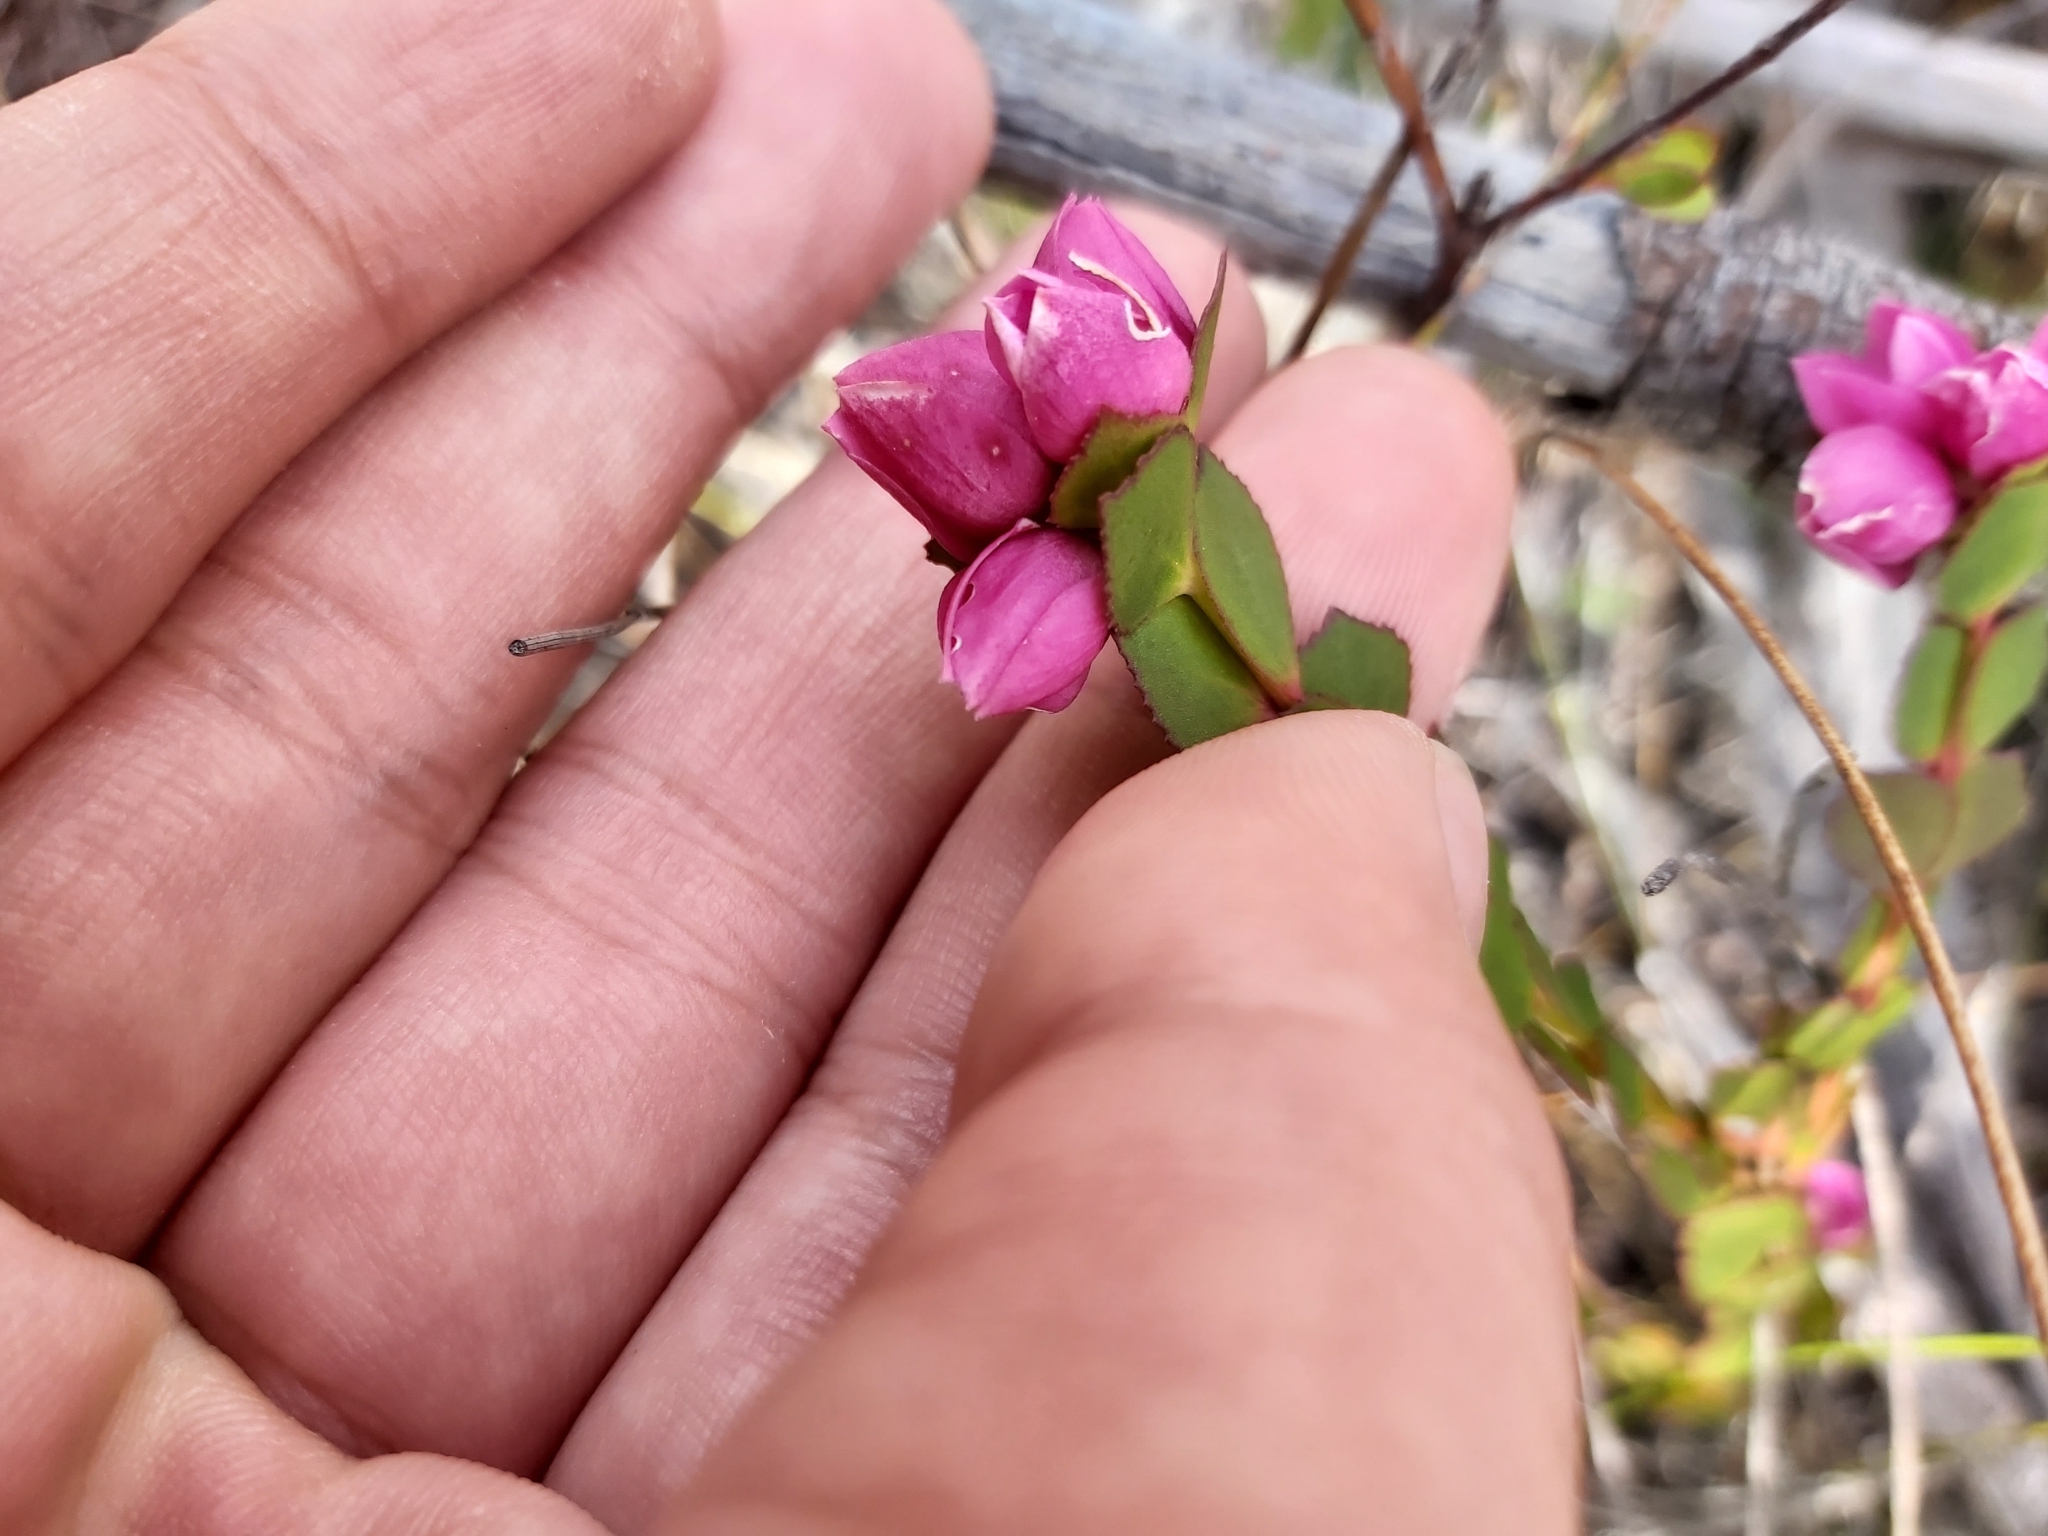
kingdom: Plantae
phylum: Tracheophyta
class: Magnoliopsida
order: Sapindales
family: Rutaceae
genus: Boronia
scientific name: Boronia serrulata
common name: Rose boronia
